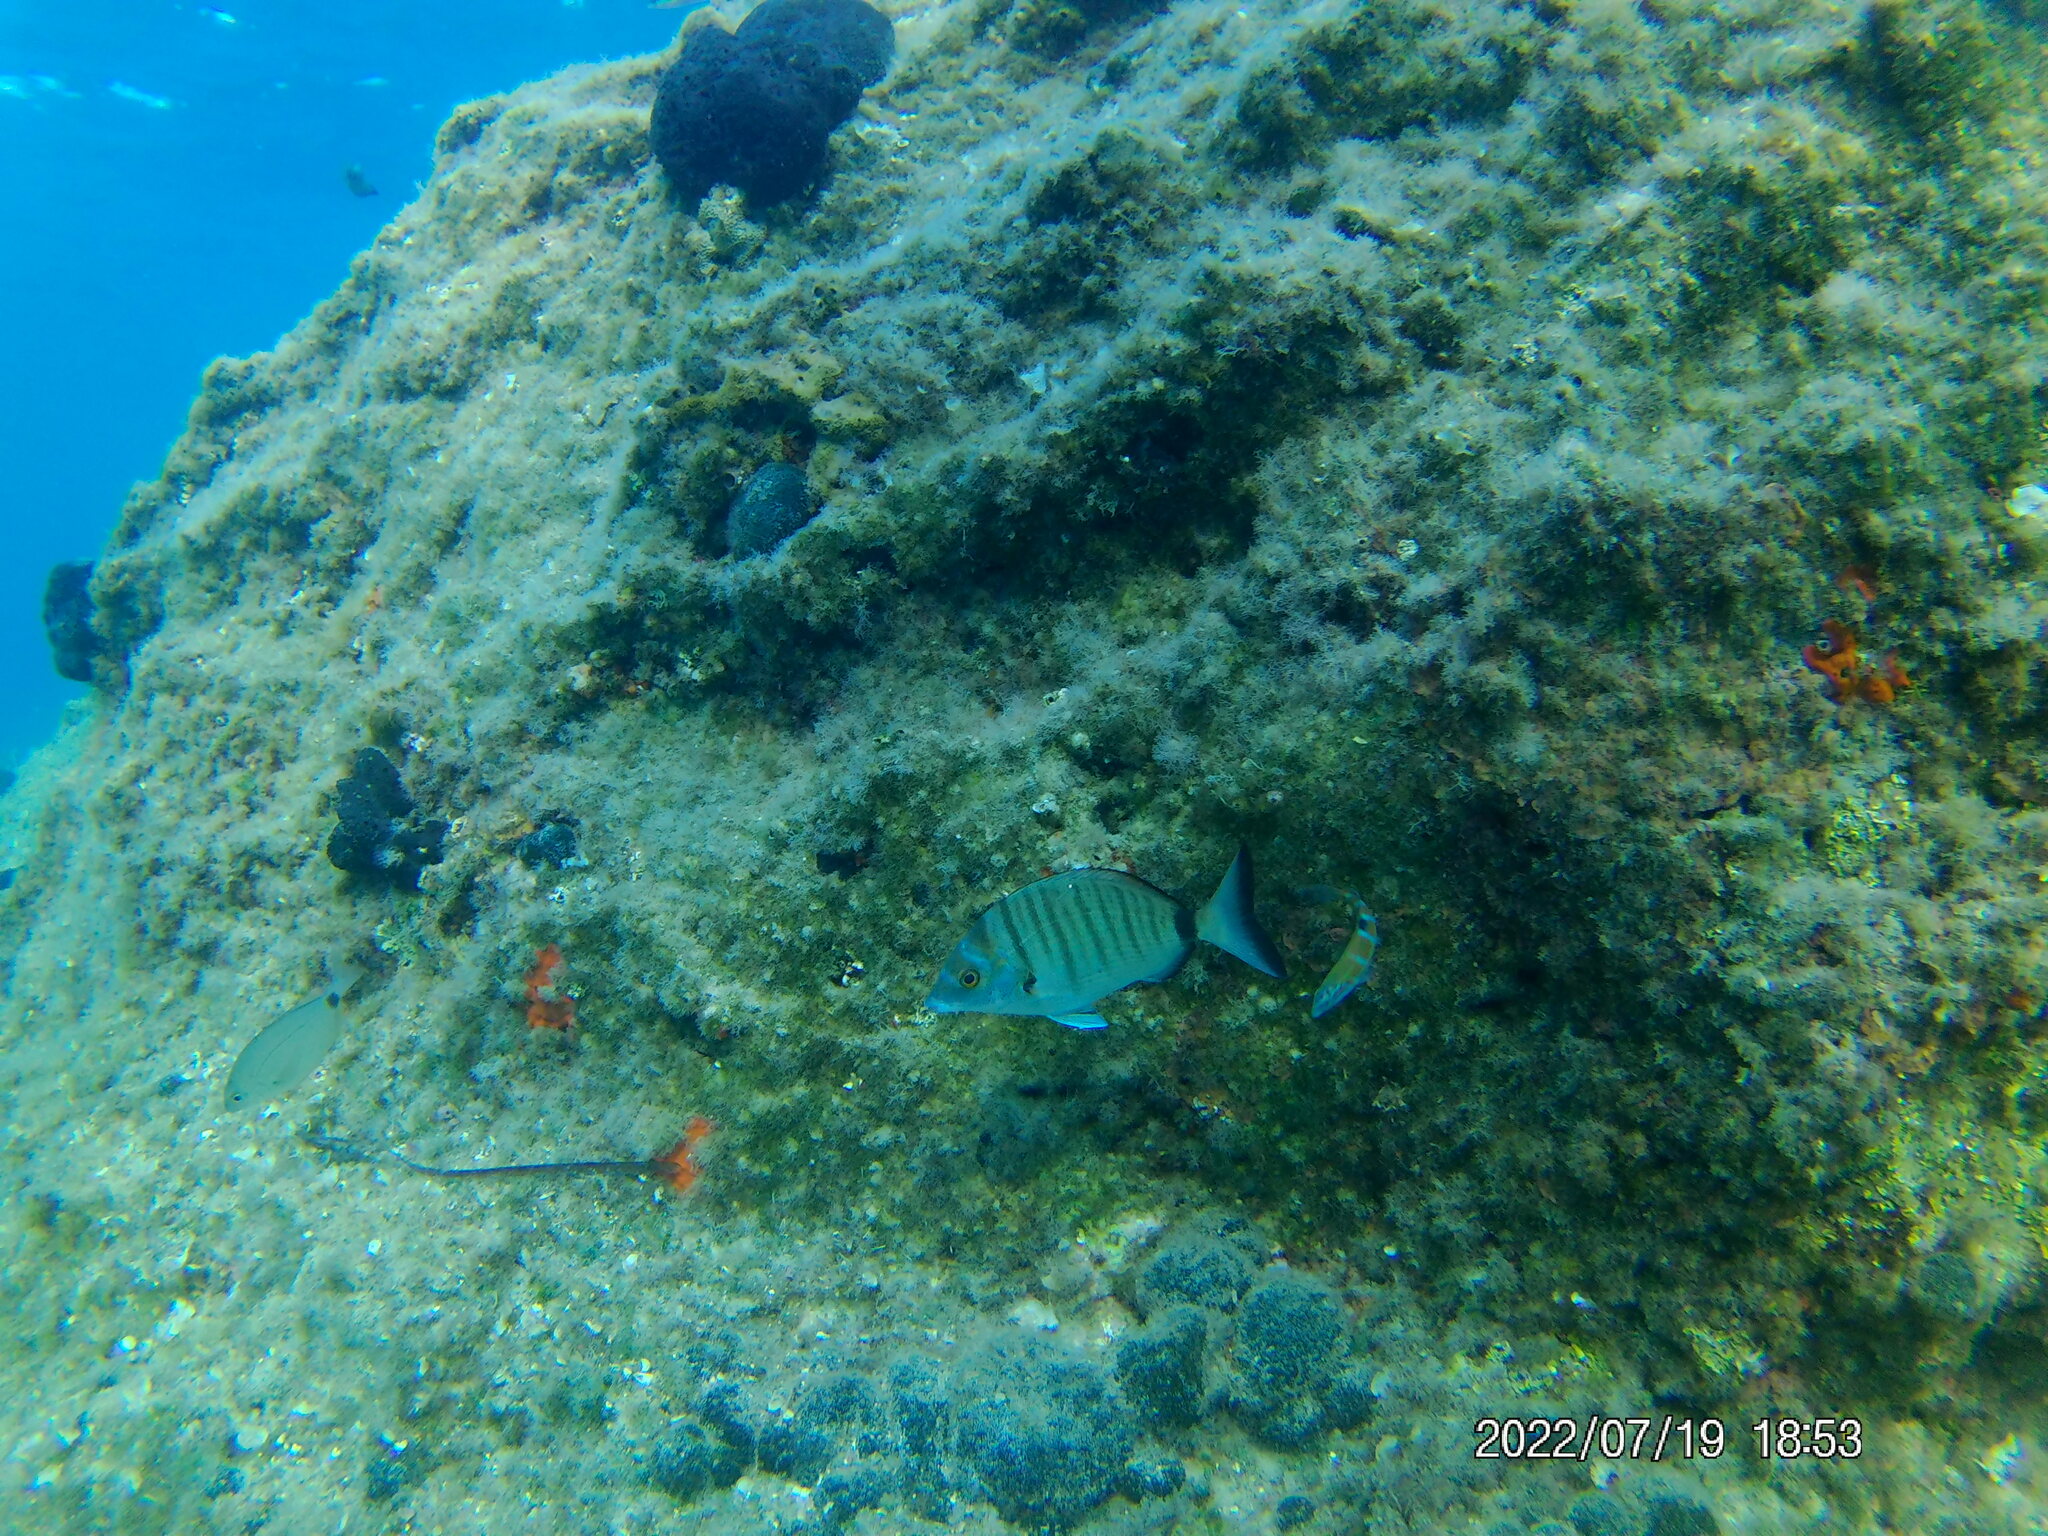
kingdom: Animalia
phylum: Chordata
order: Perciformes
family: Sparidae
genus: Diplodus
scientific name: Diplodus puntazzo
